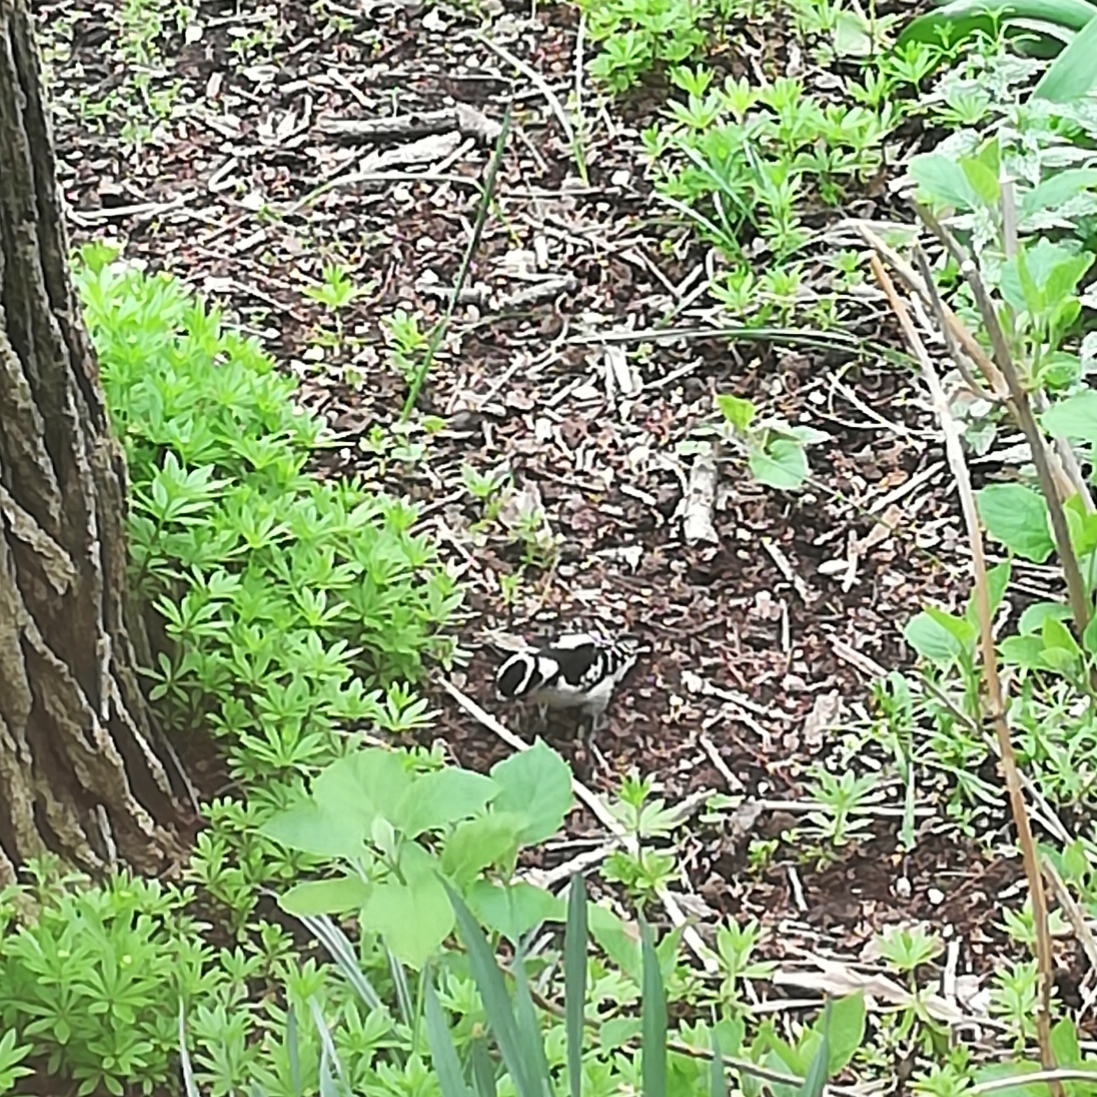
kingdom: Animalia
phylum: Chordata
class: Aves
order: Piciformes
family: Picidae
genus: Dryobates
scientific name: Dryobates pubescens
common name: Downy woodpecker
